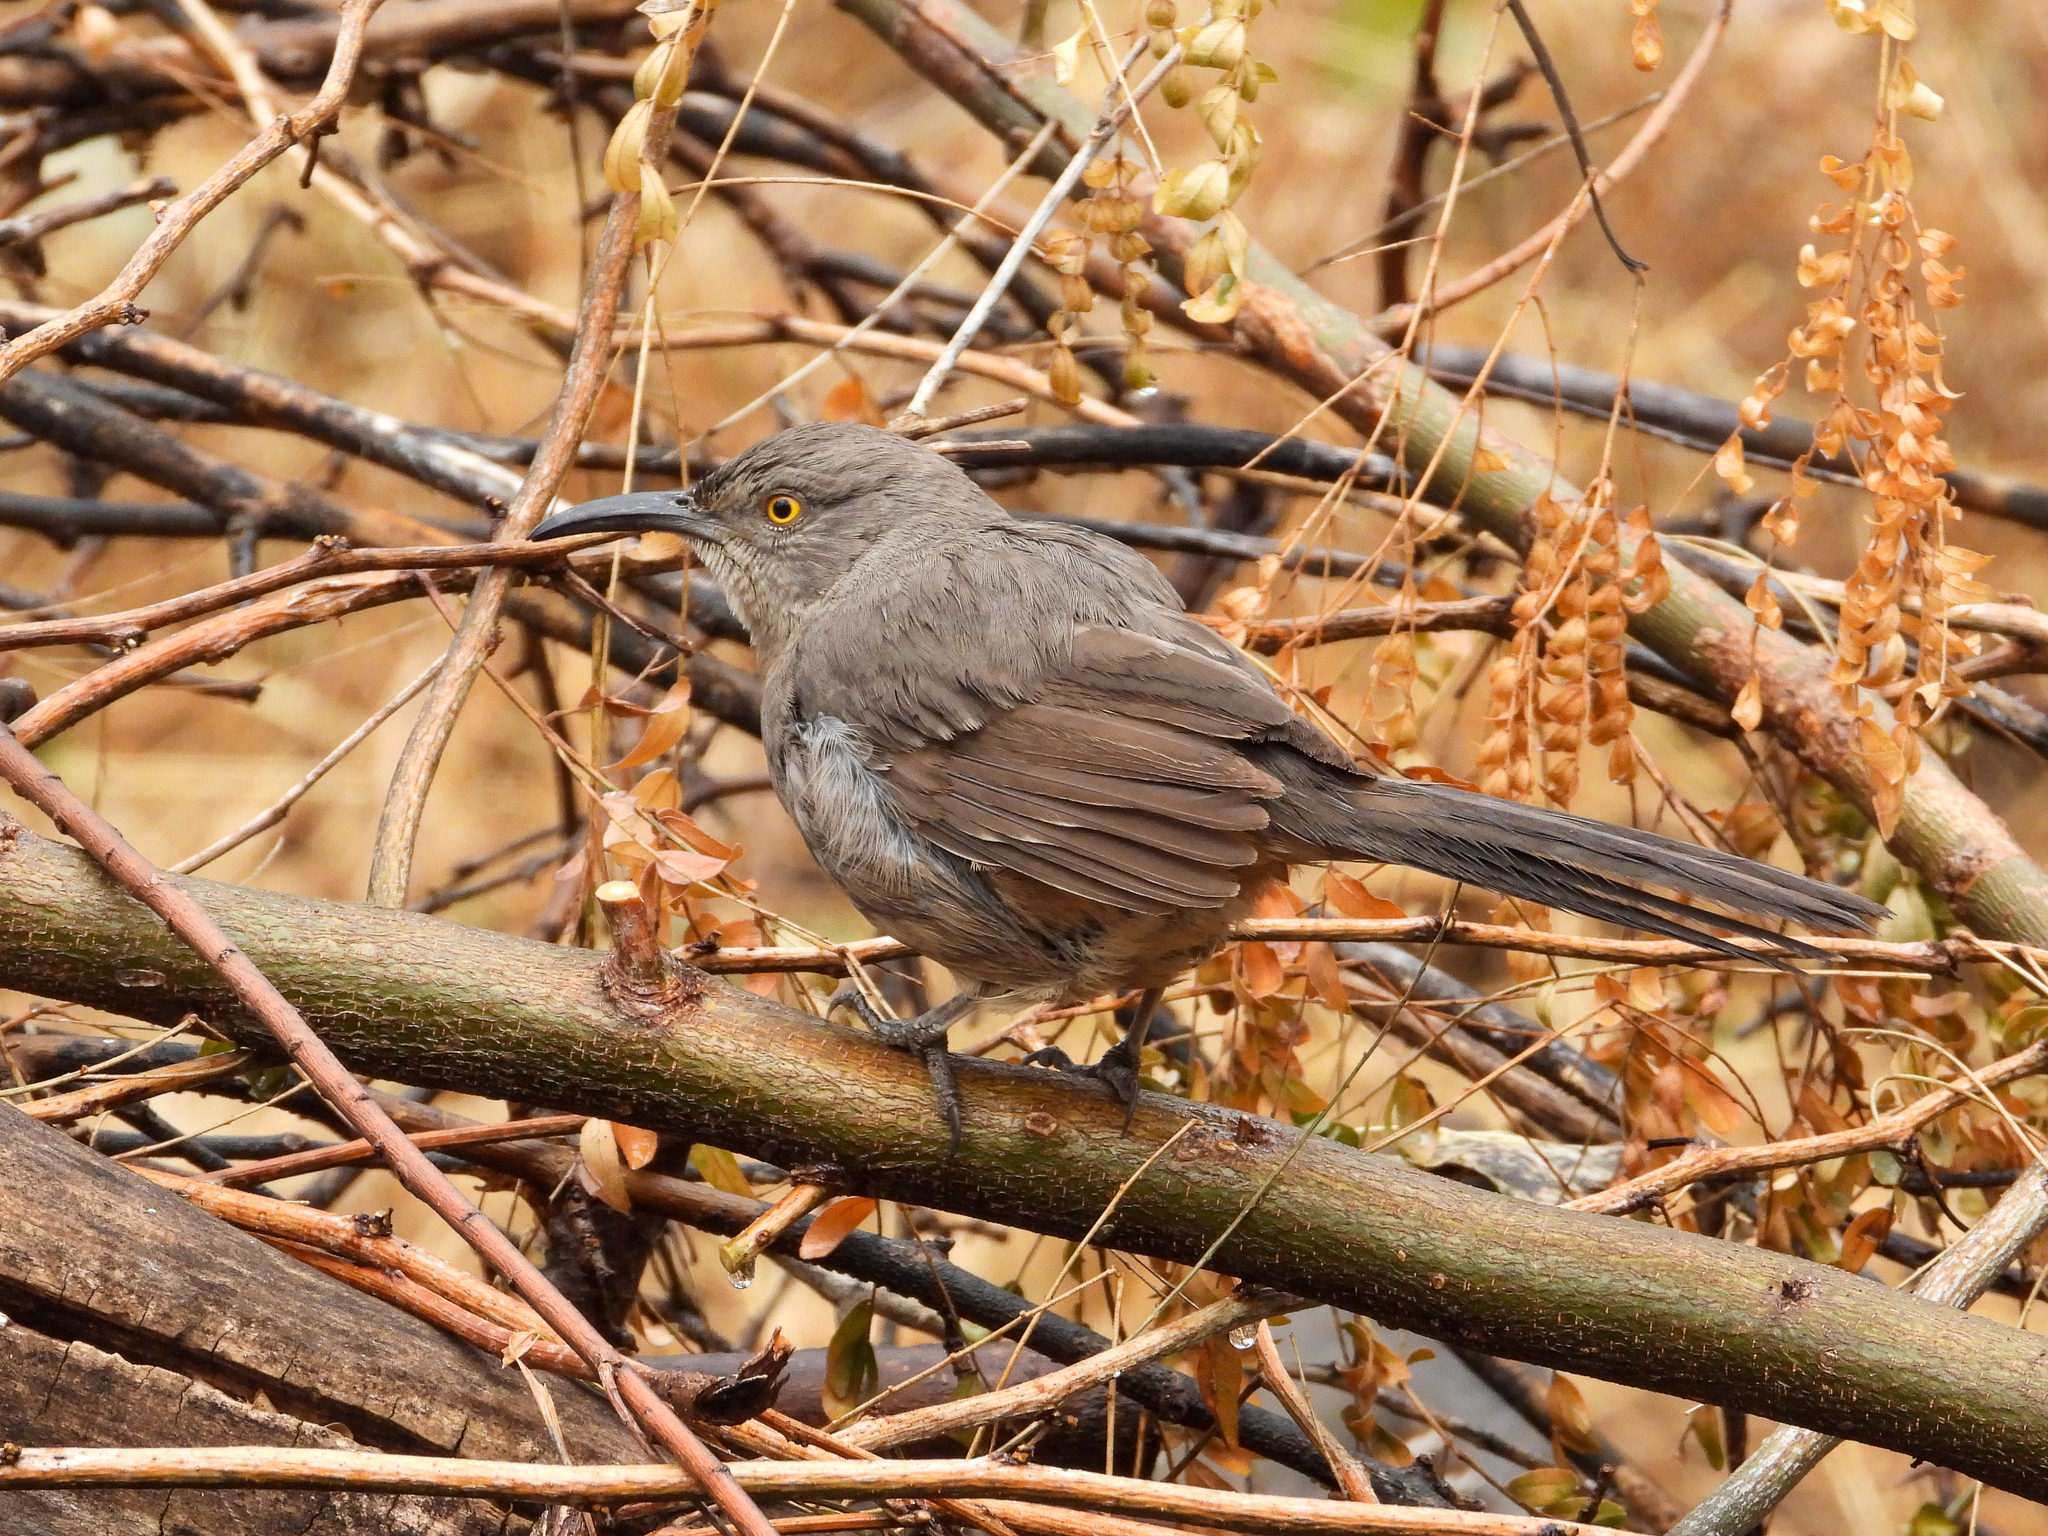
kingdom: Animalia
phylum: Chordata
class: Aves
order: Passeriformes
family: Mimidae
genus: Toxostoma
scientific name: Toxostoma curvirostre
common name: Curve-billed thrasher
